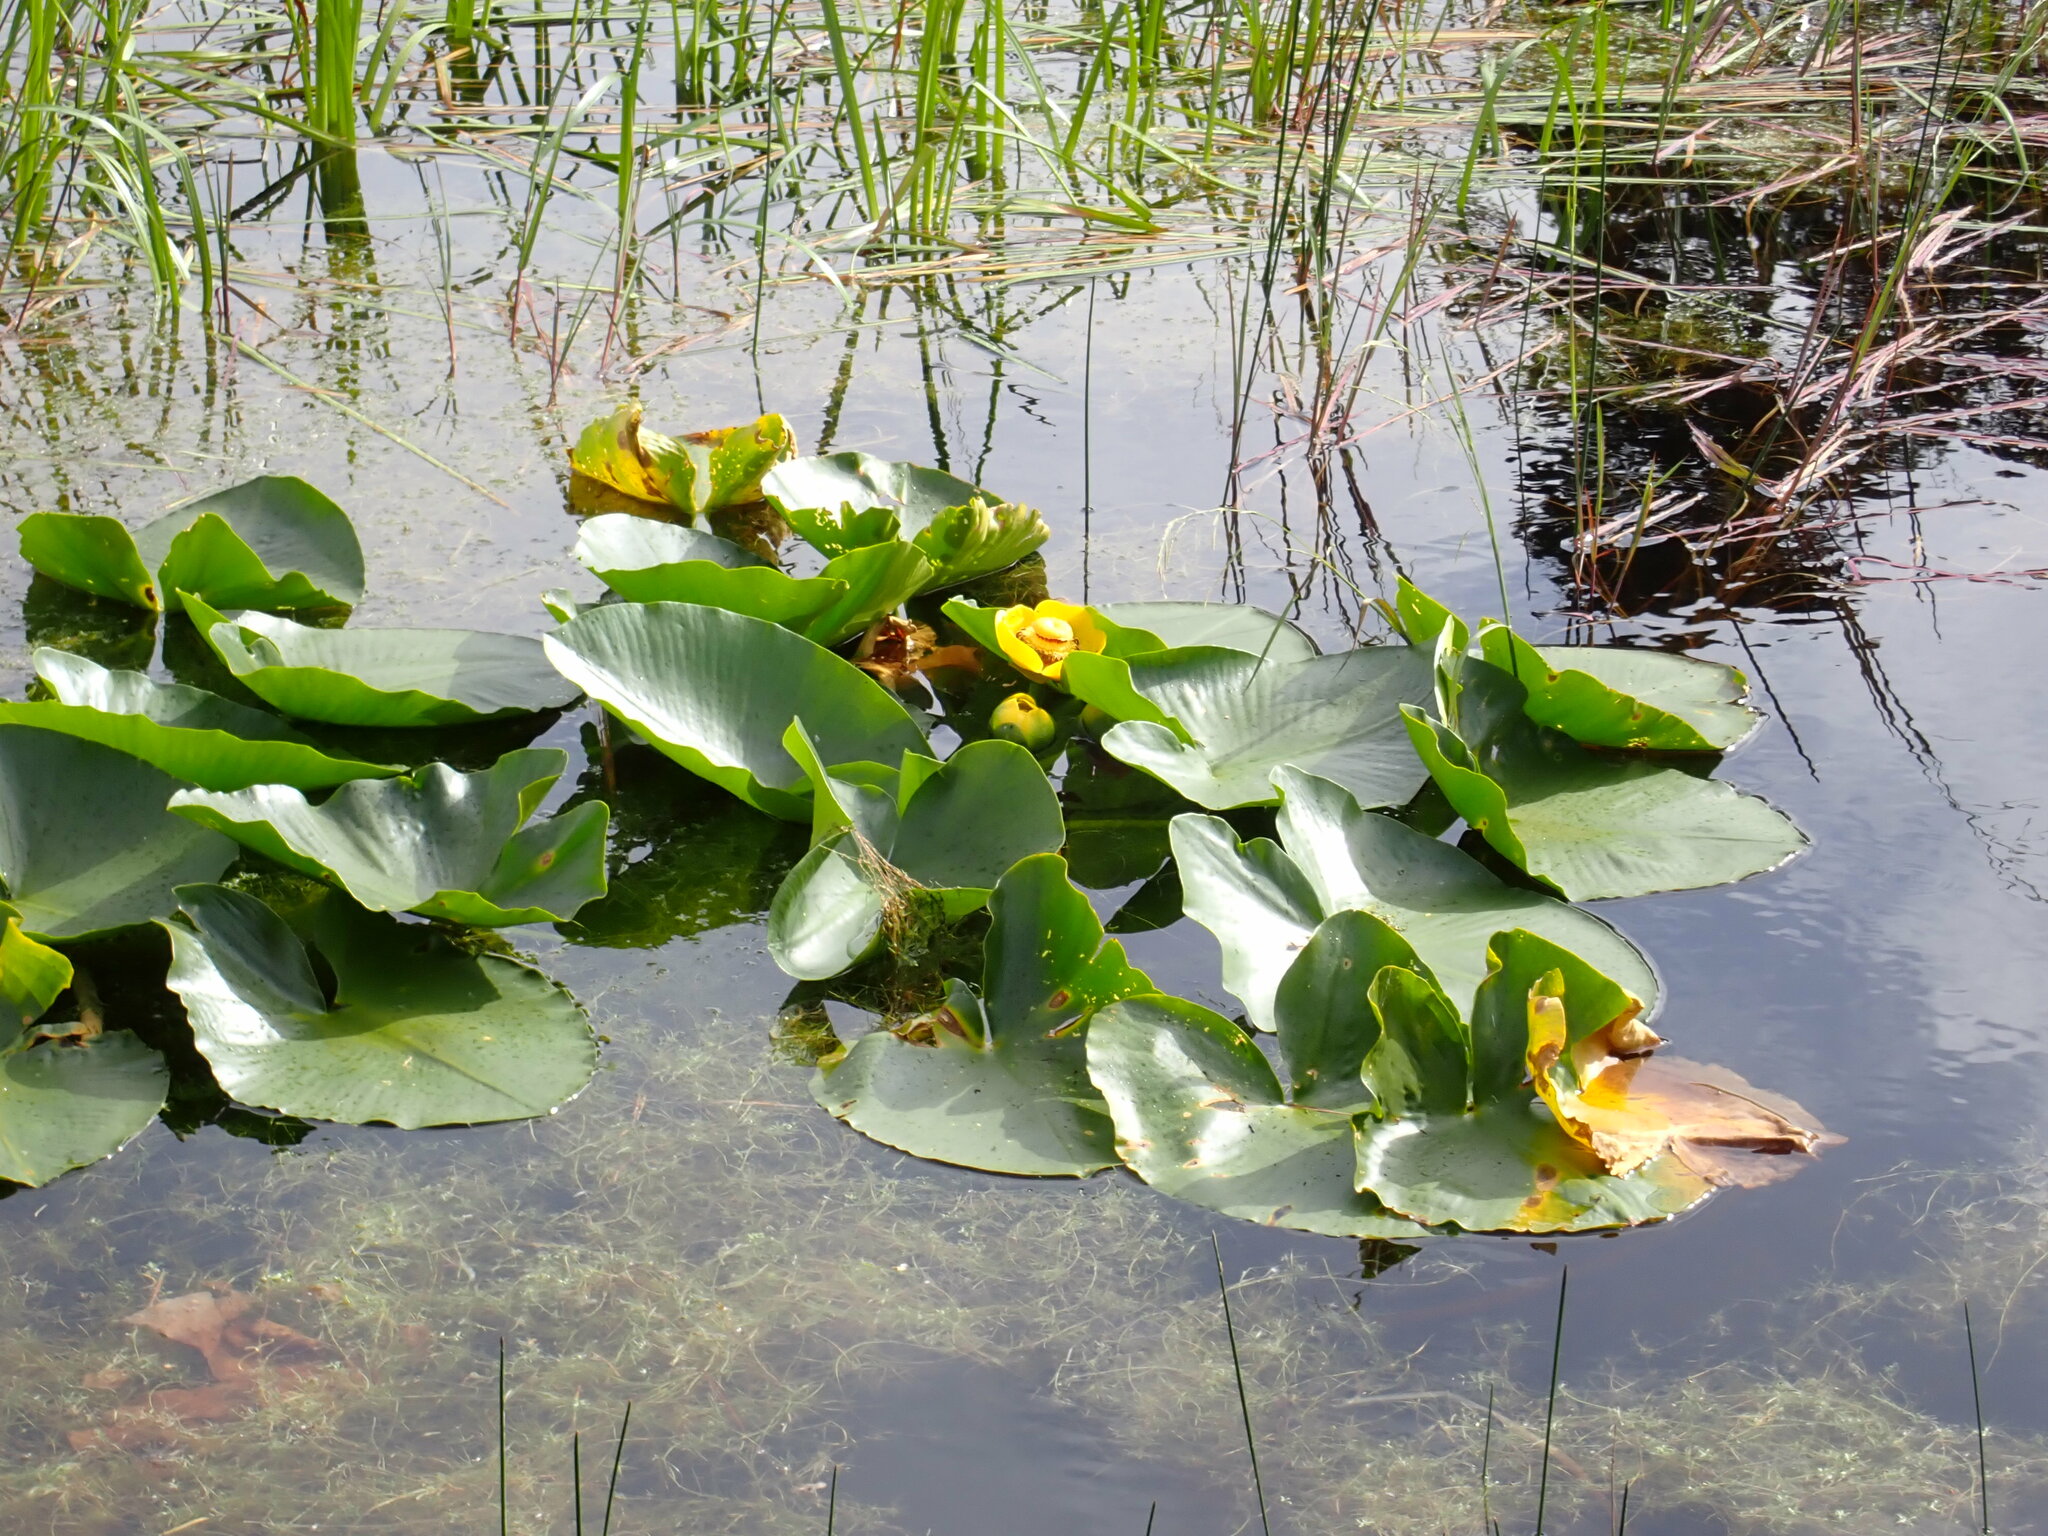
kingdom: Plantae
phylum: Tracheophyta
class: Magnoliopsida
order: Nymphaeales
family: Nymphaeaceae
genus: Nuphar
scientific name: Nuphar polysepala
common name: Rocky mountain cow-lily
